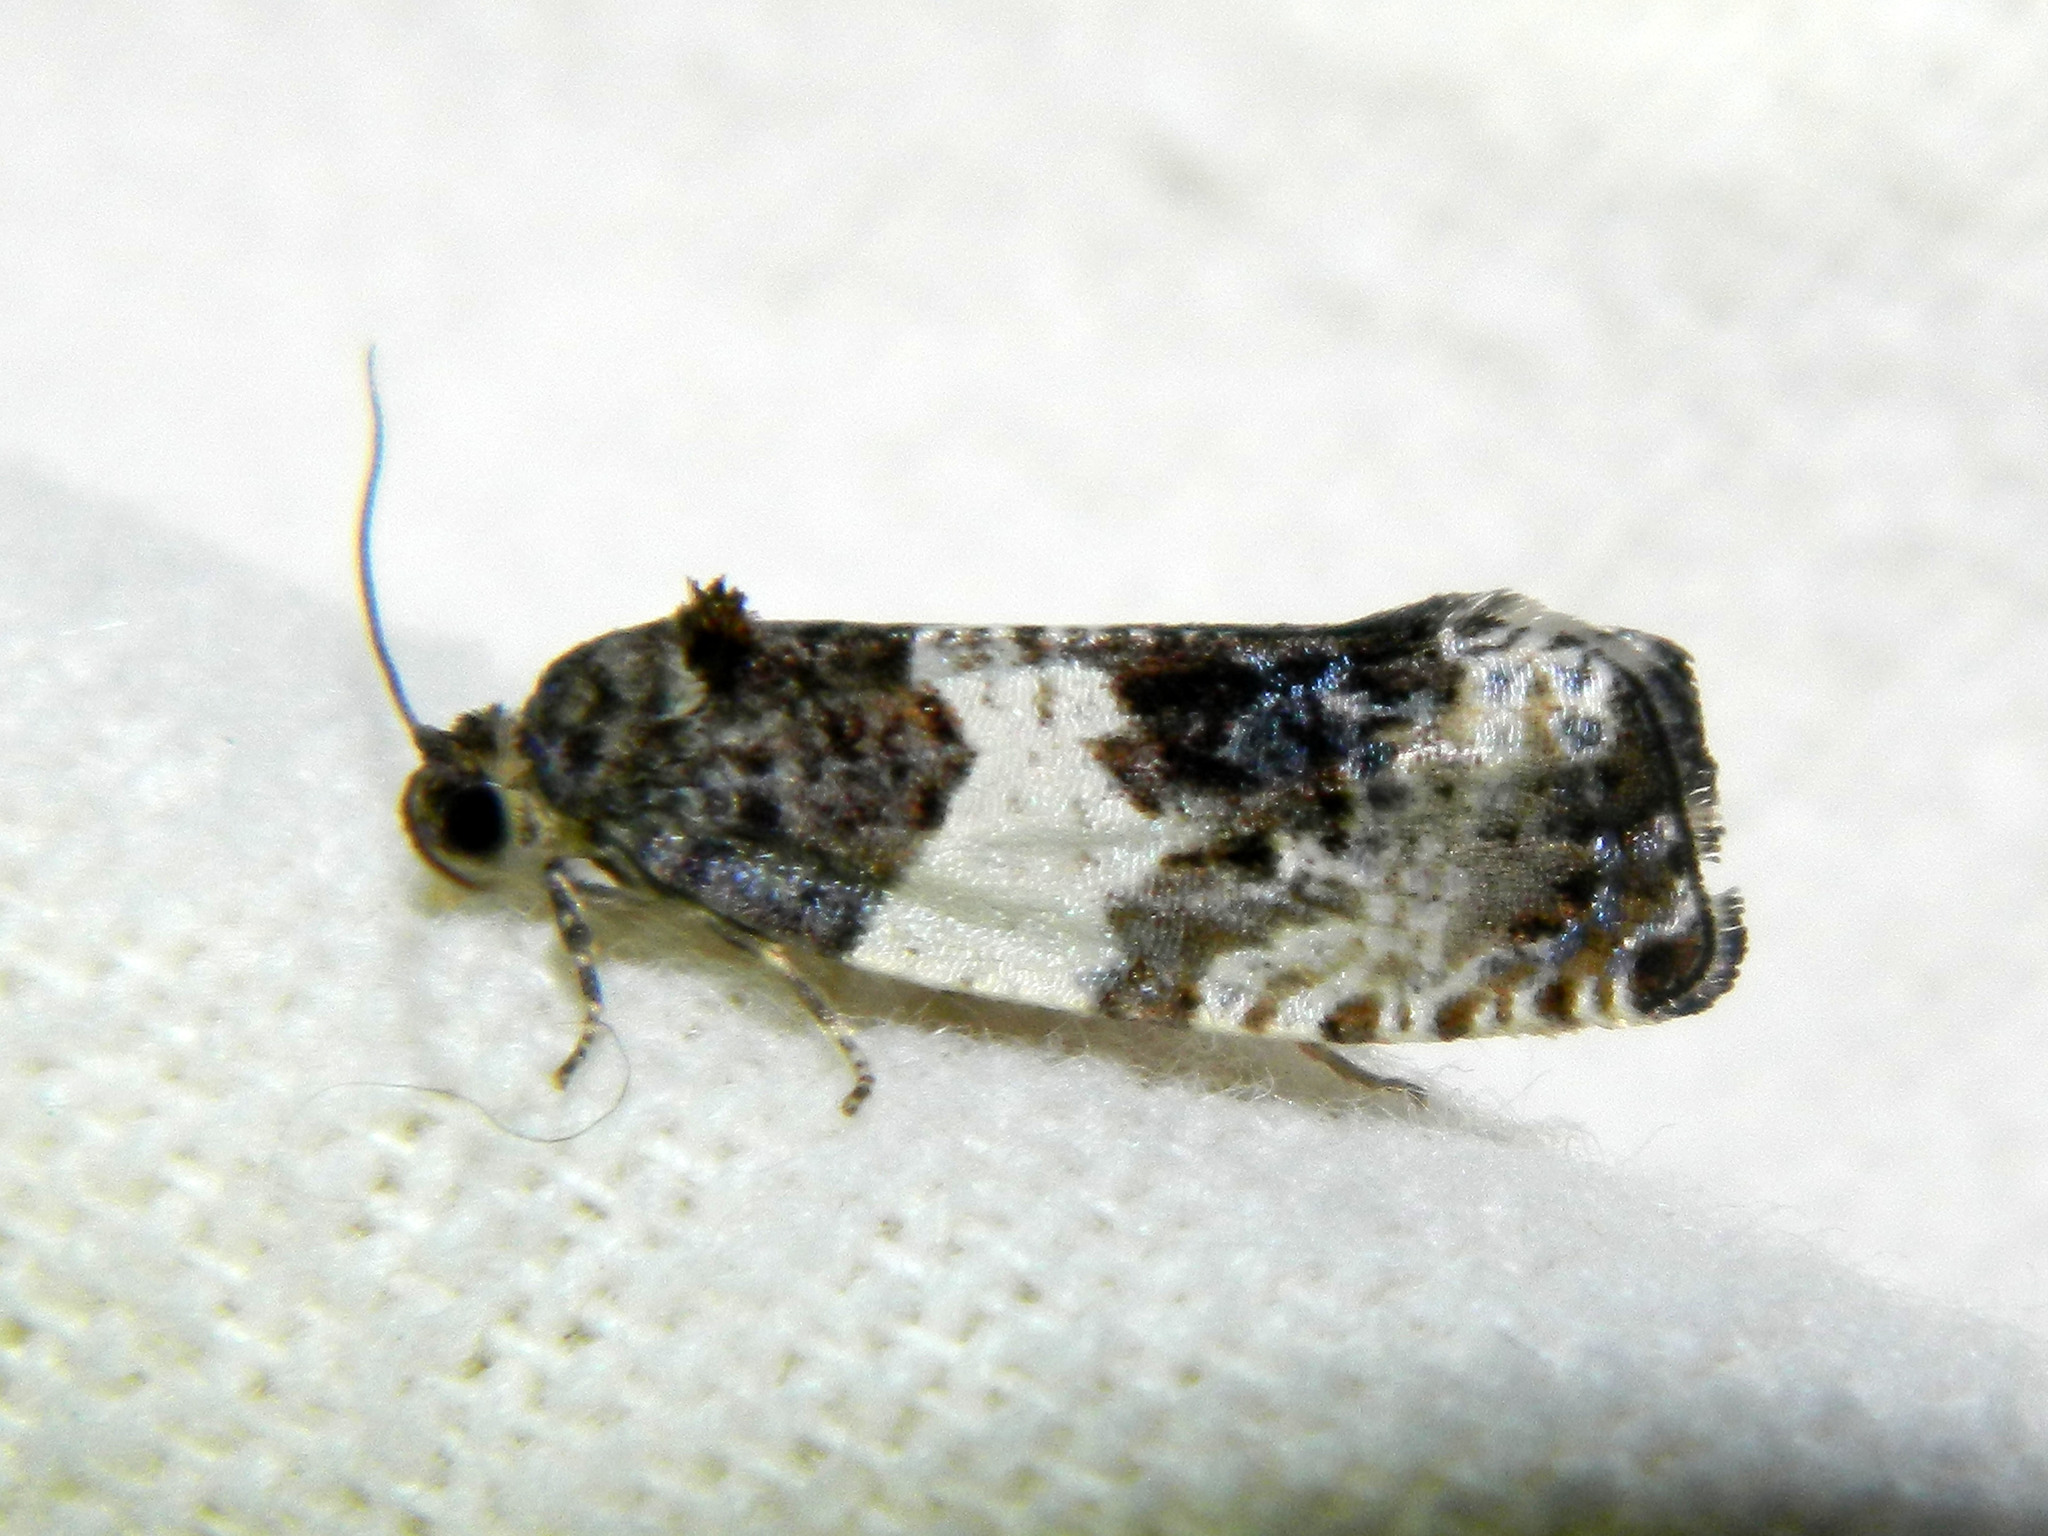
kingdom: Animalia
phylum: Arthropoda
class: Insecta
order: Lepidoptera
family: Tortricidae
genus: Pseudosciaphila
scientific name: Pseudosciaphila duplex
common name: Poplar leafroller moth
